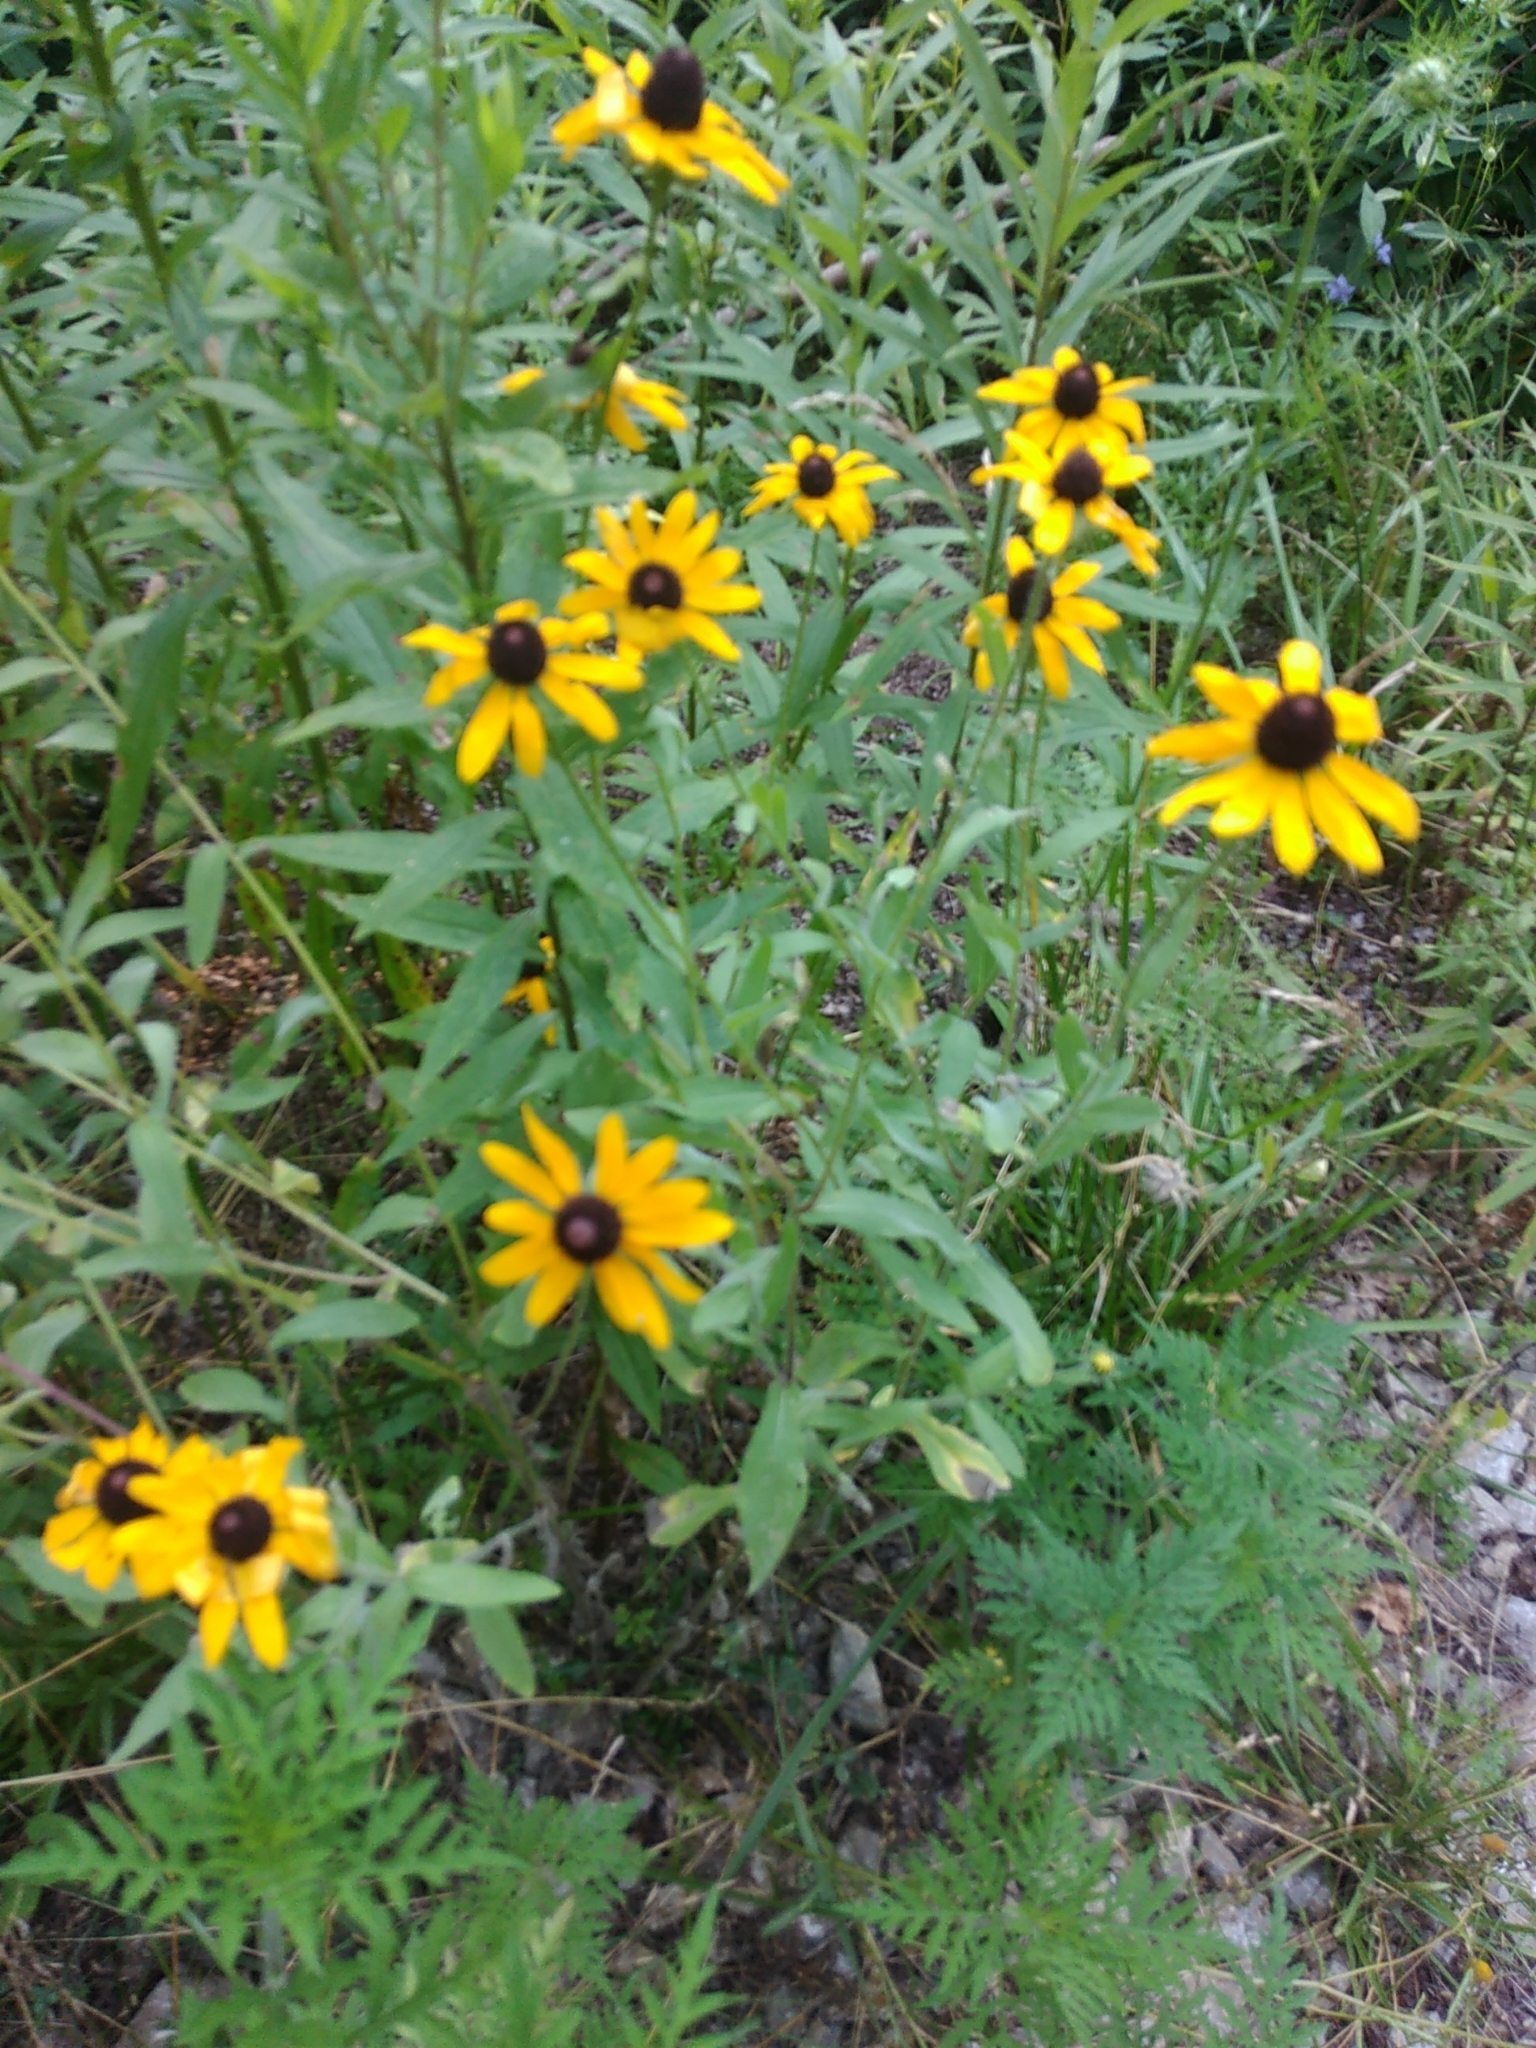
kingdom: Plantae
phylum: Tracheophyta
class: Magnoliopsida
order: Asterales
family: Asteraceae
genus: Rudbeckia
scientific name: Rudbeckia hirta
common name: Black-eyed-susan
